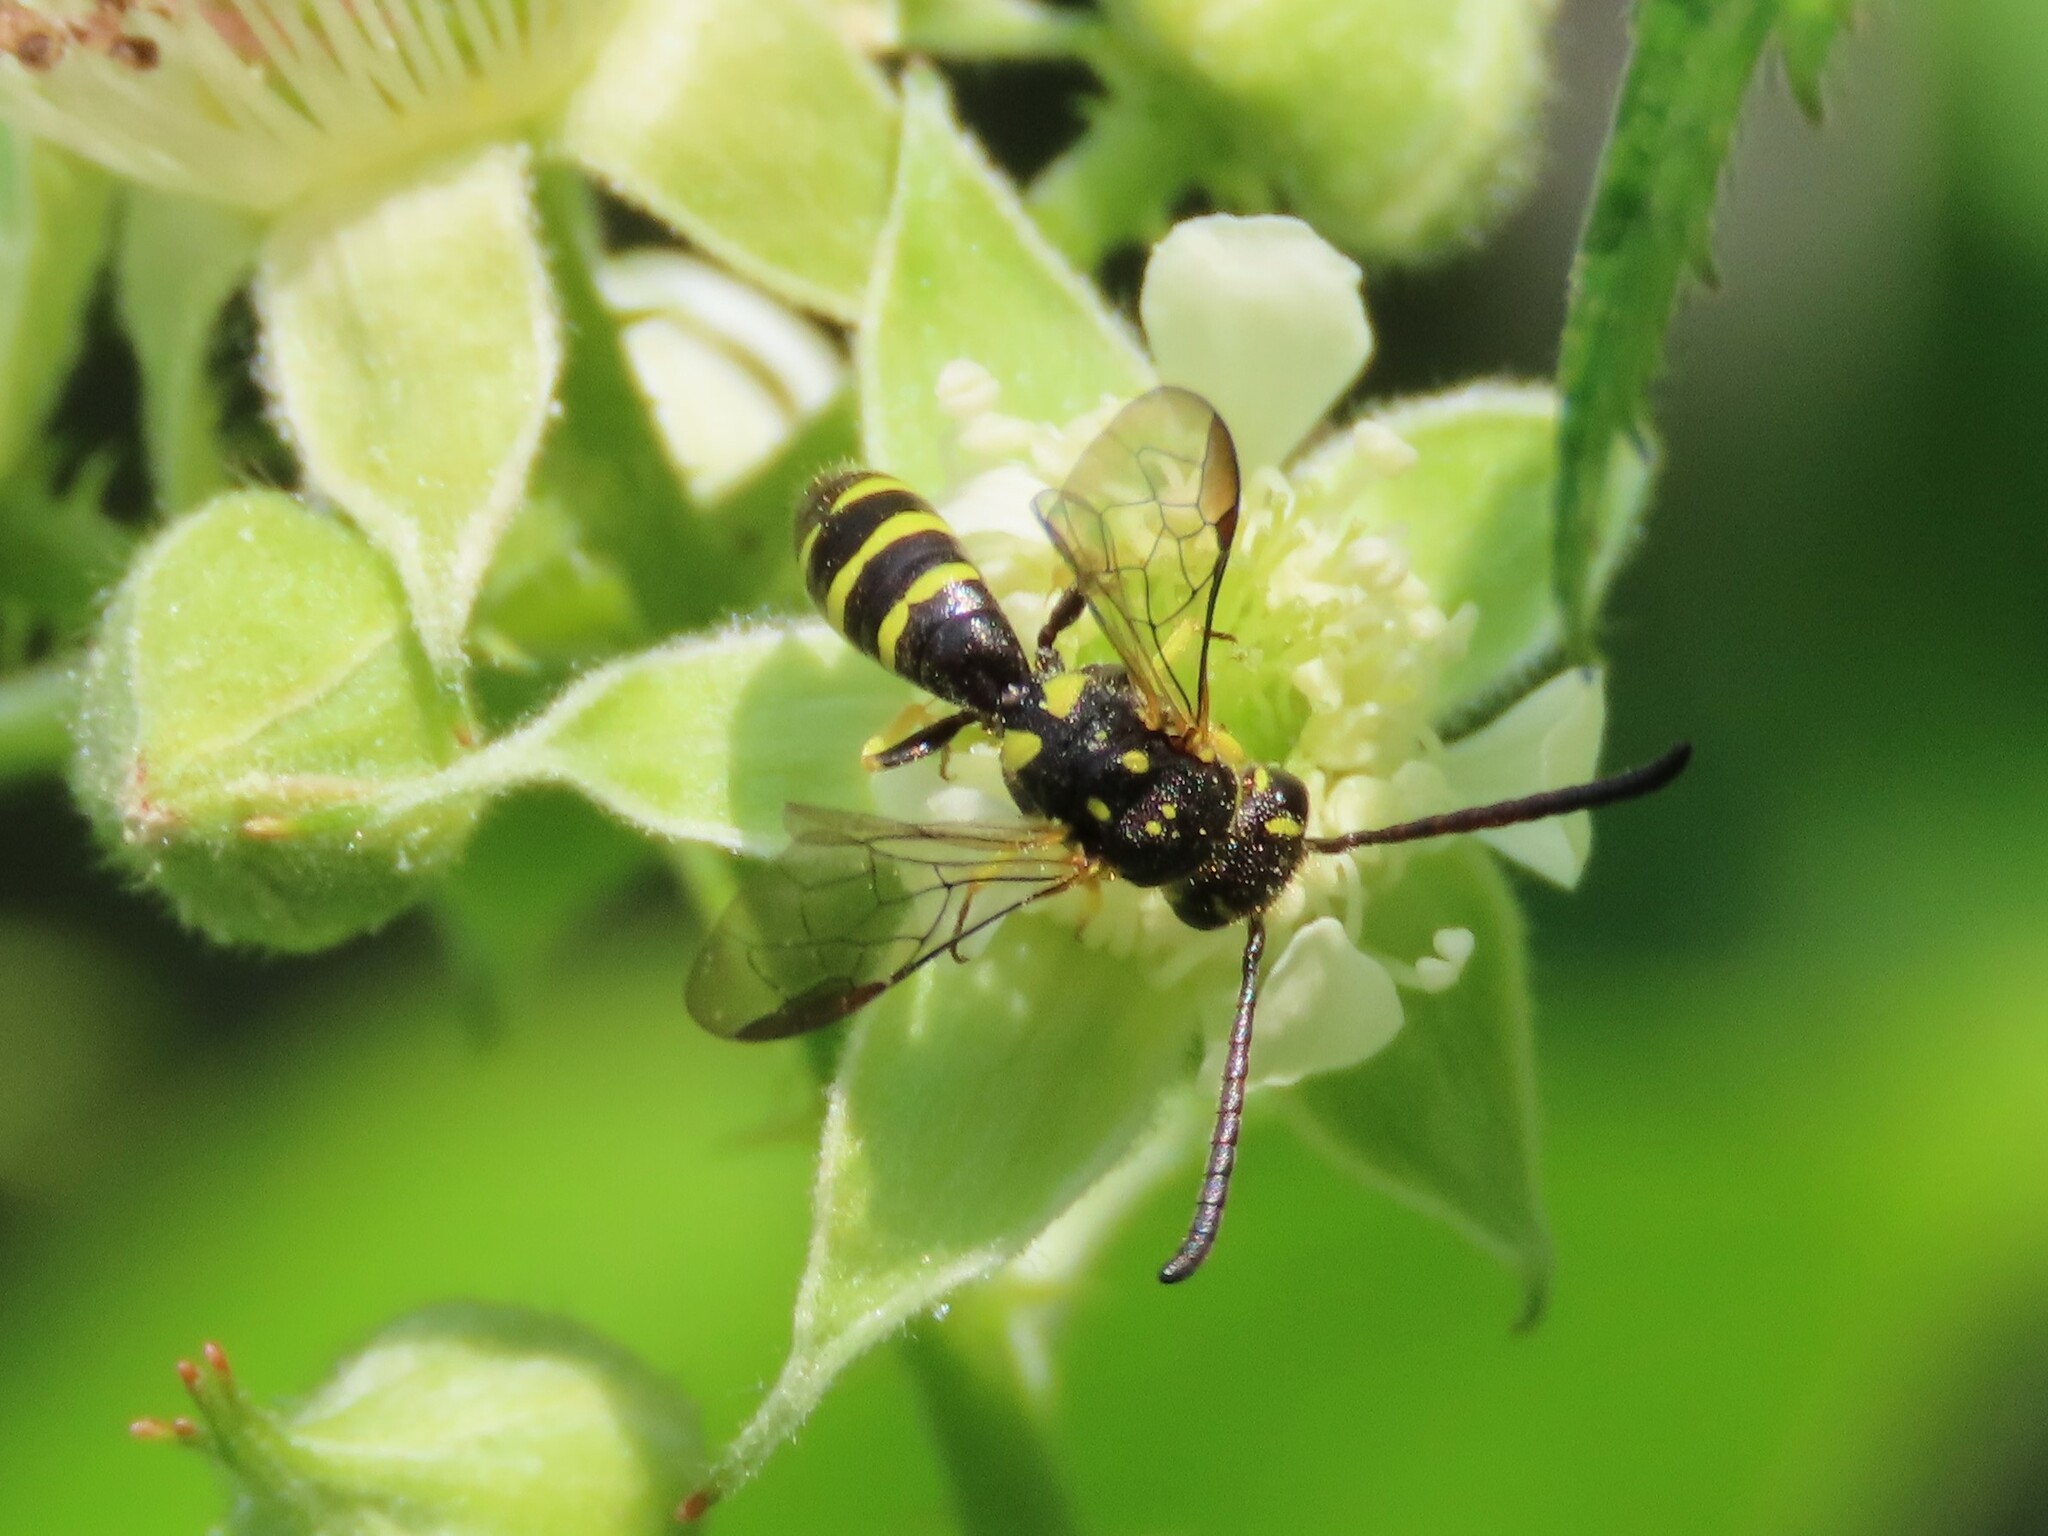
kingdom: Animalia
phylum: Arthropoda
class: Insecta
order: Hymenoptera
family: Sapygidae
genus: Sapyga
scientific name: Sapyga centrata
